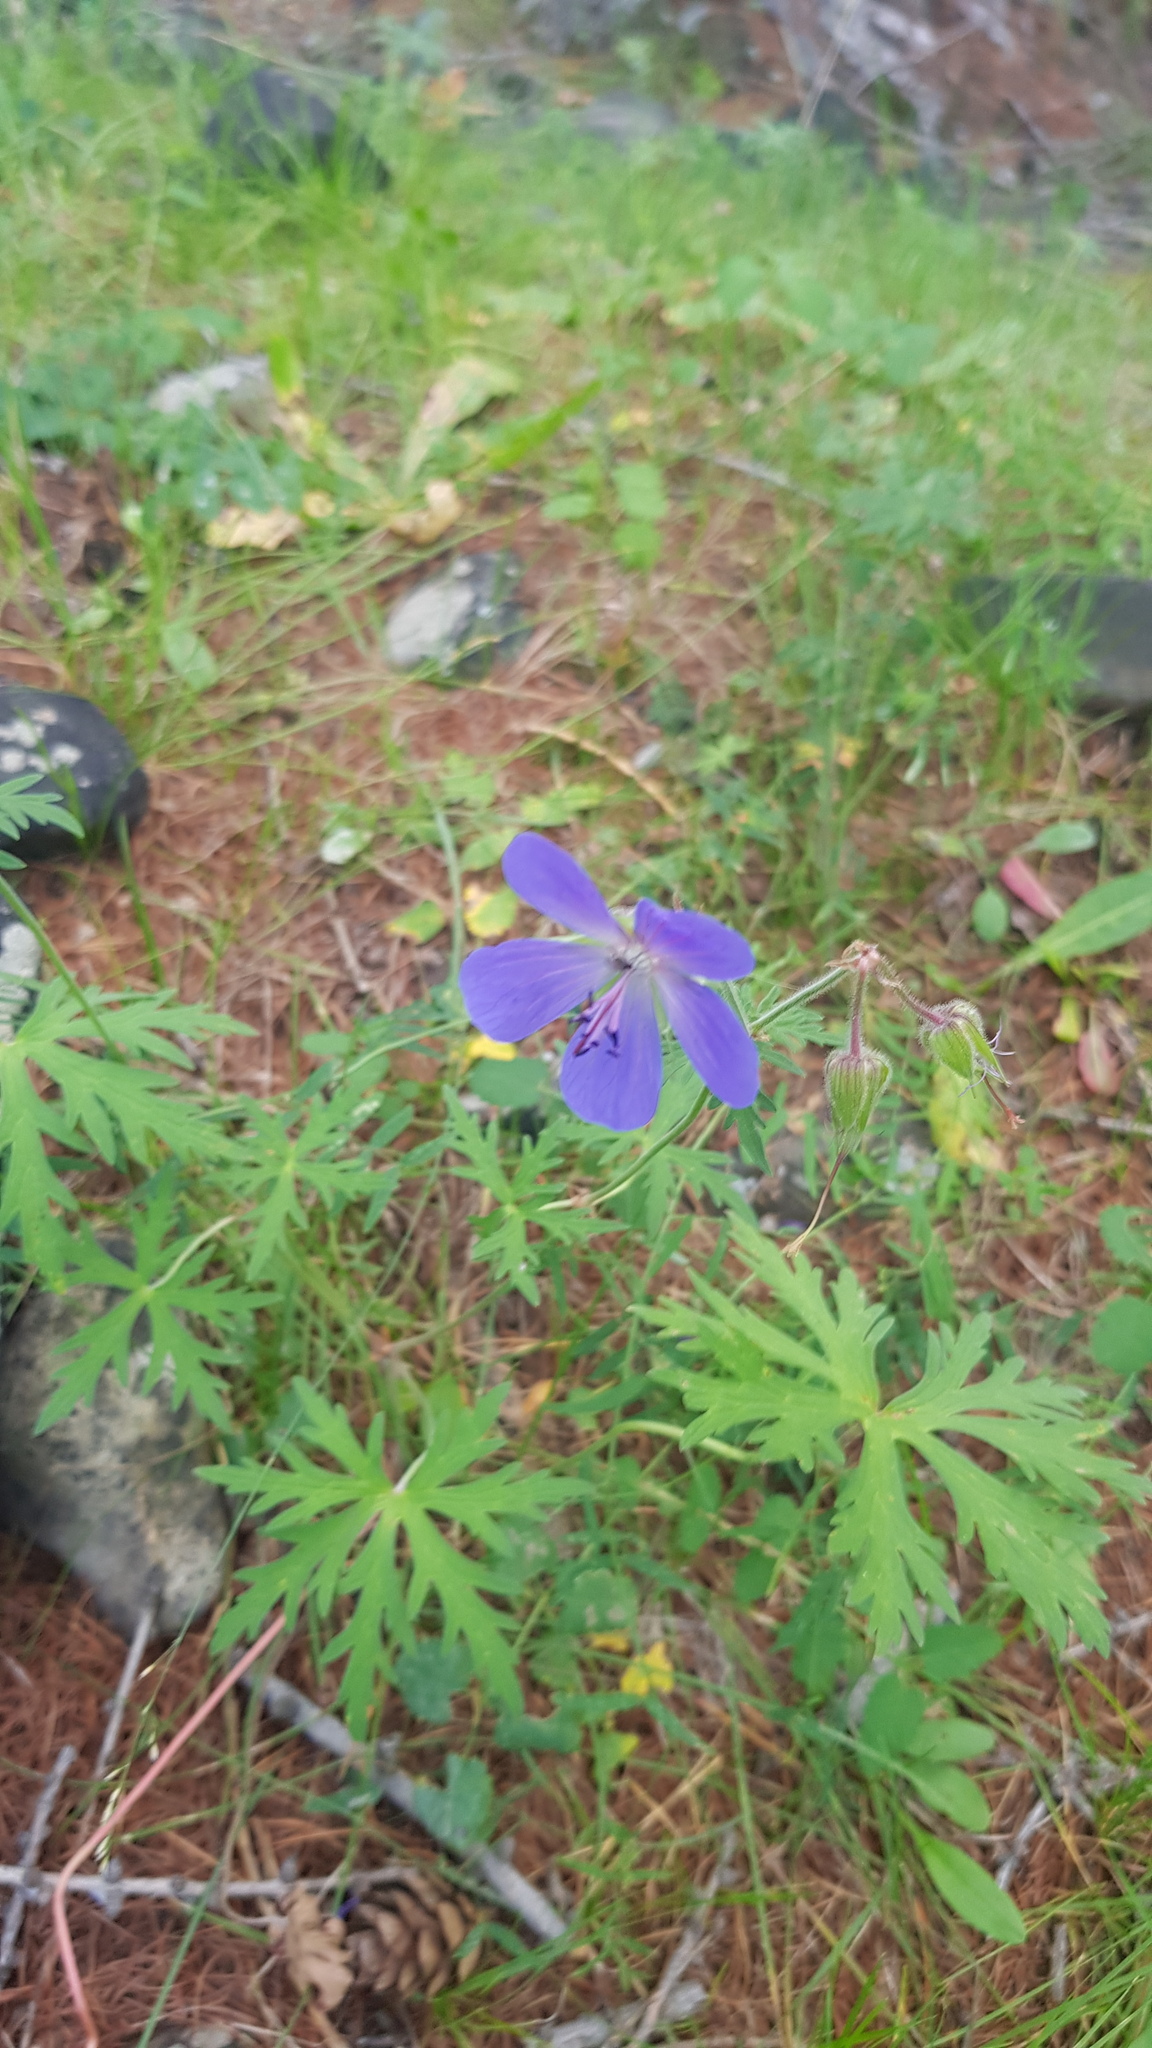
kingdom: Plantae
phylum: Tracheophyta
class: Magnoliopsida
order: Geraniales
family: Geraniaceae
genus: Geranium
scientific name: Geranium pratense
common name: Meadow crane's-bill
